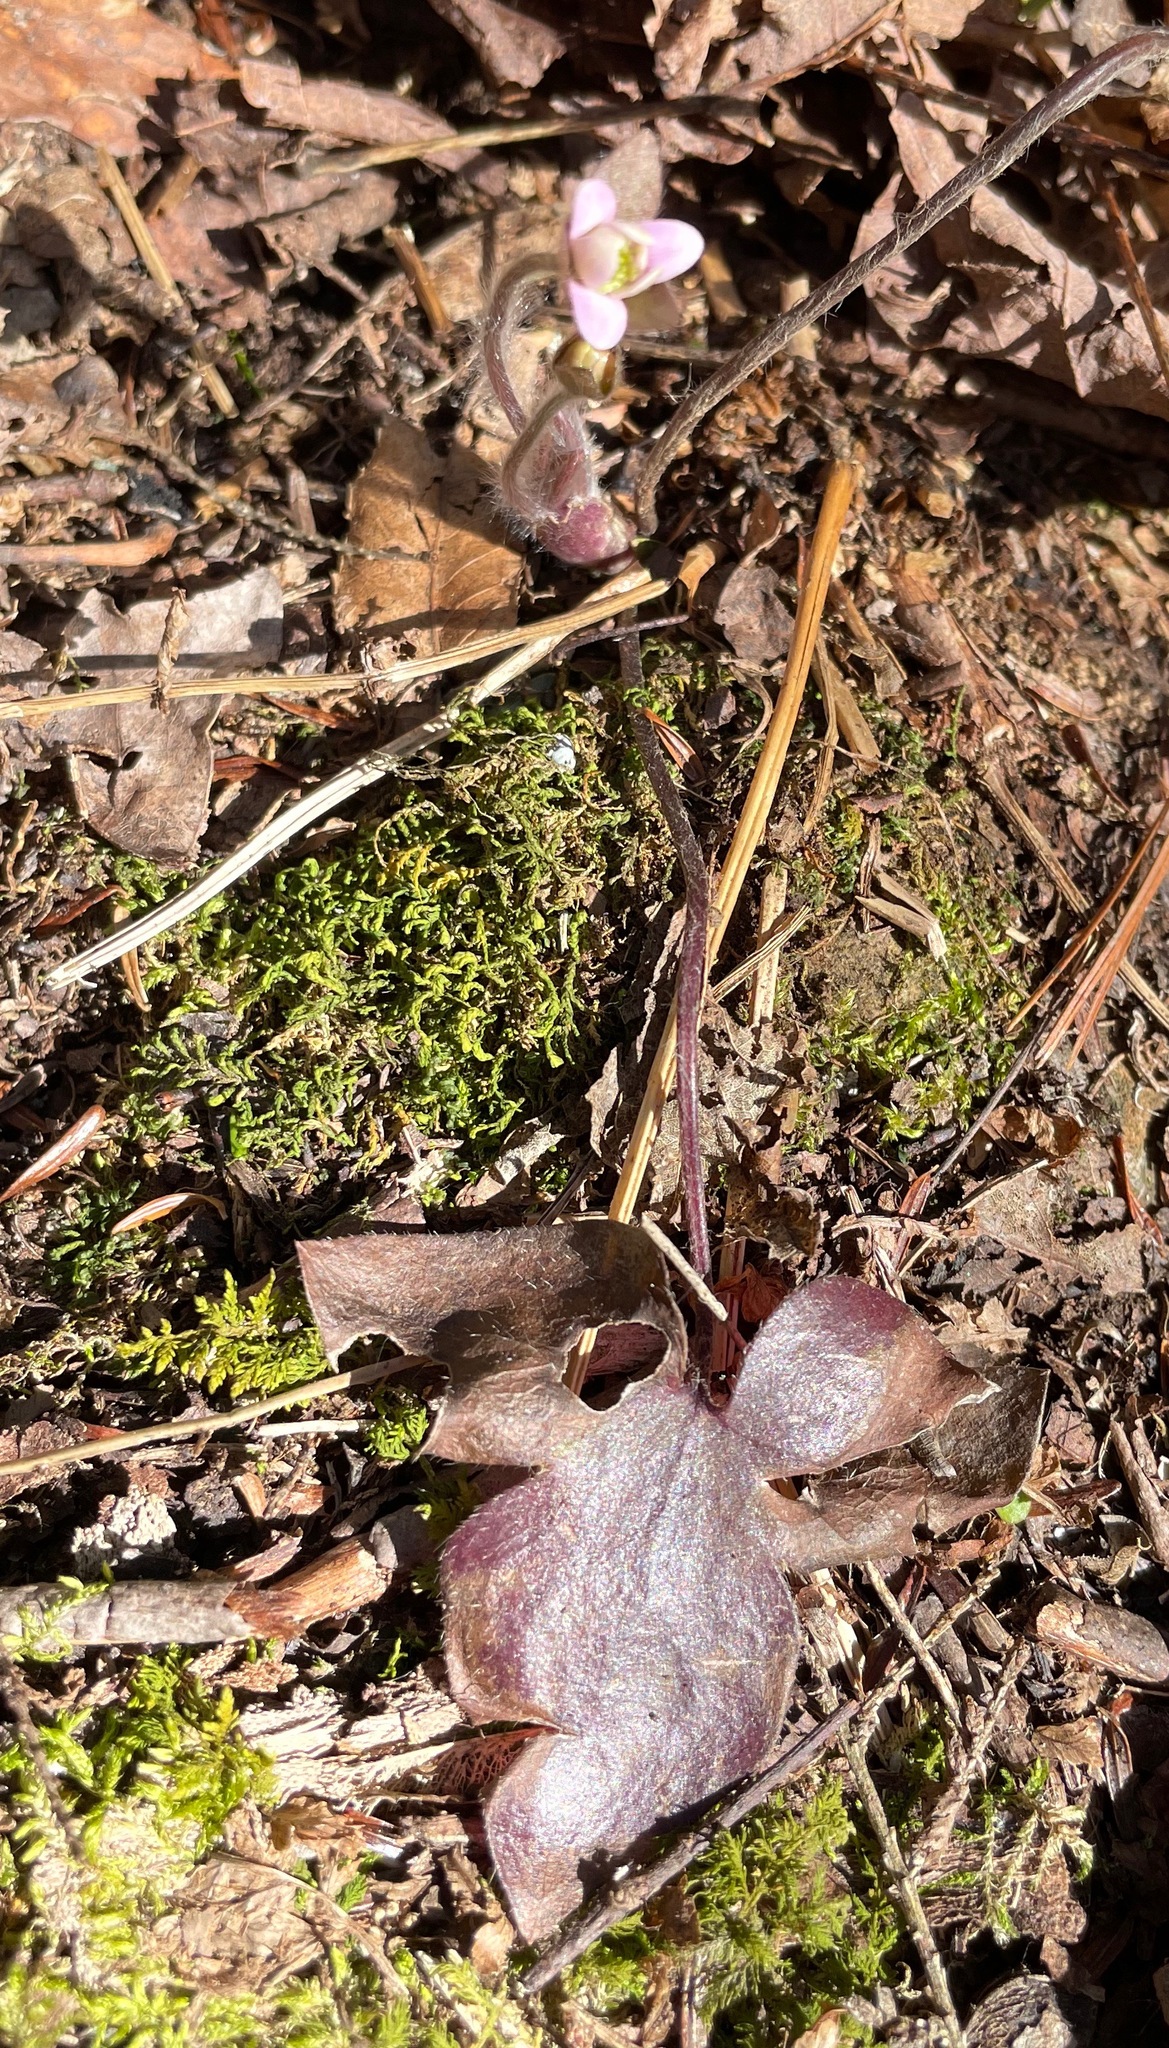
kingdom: Plantae
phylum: Tracheophyta
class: Magnoliopsida
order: Ranunculales
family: Ranunculaceae
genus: Hepatica
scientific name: Hepatica acutiloba
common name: Sharp-lobed hepatica
